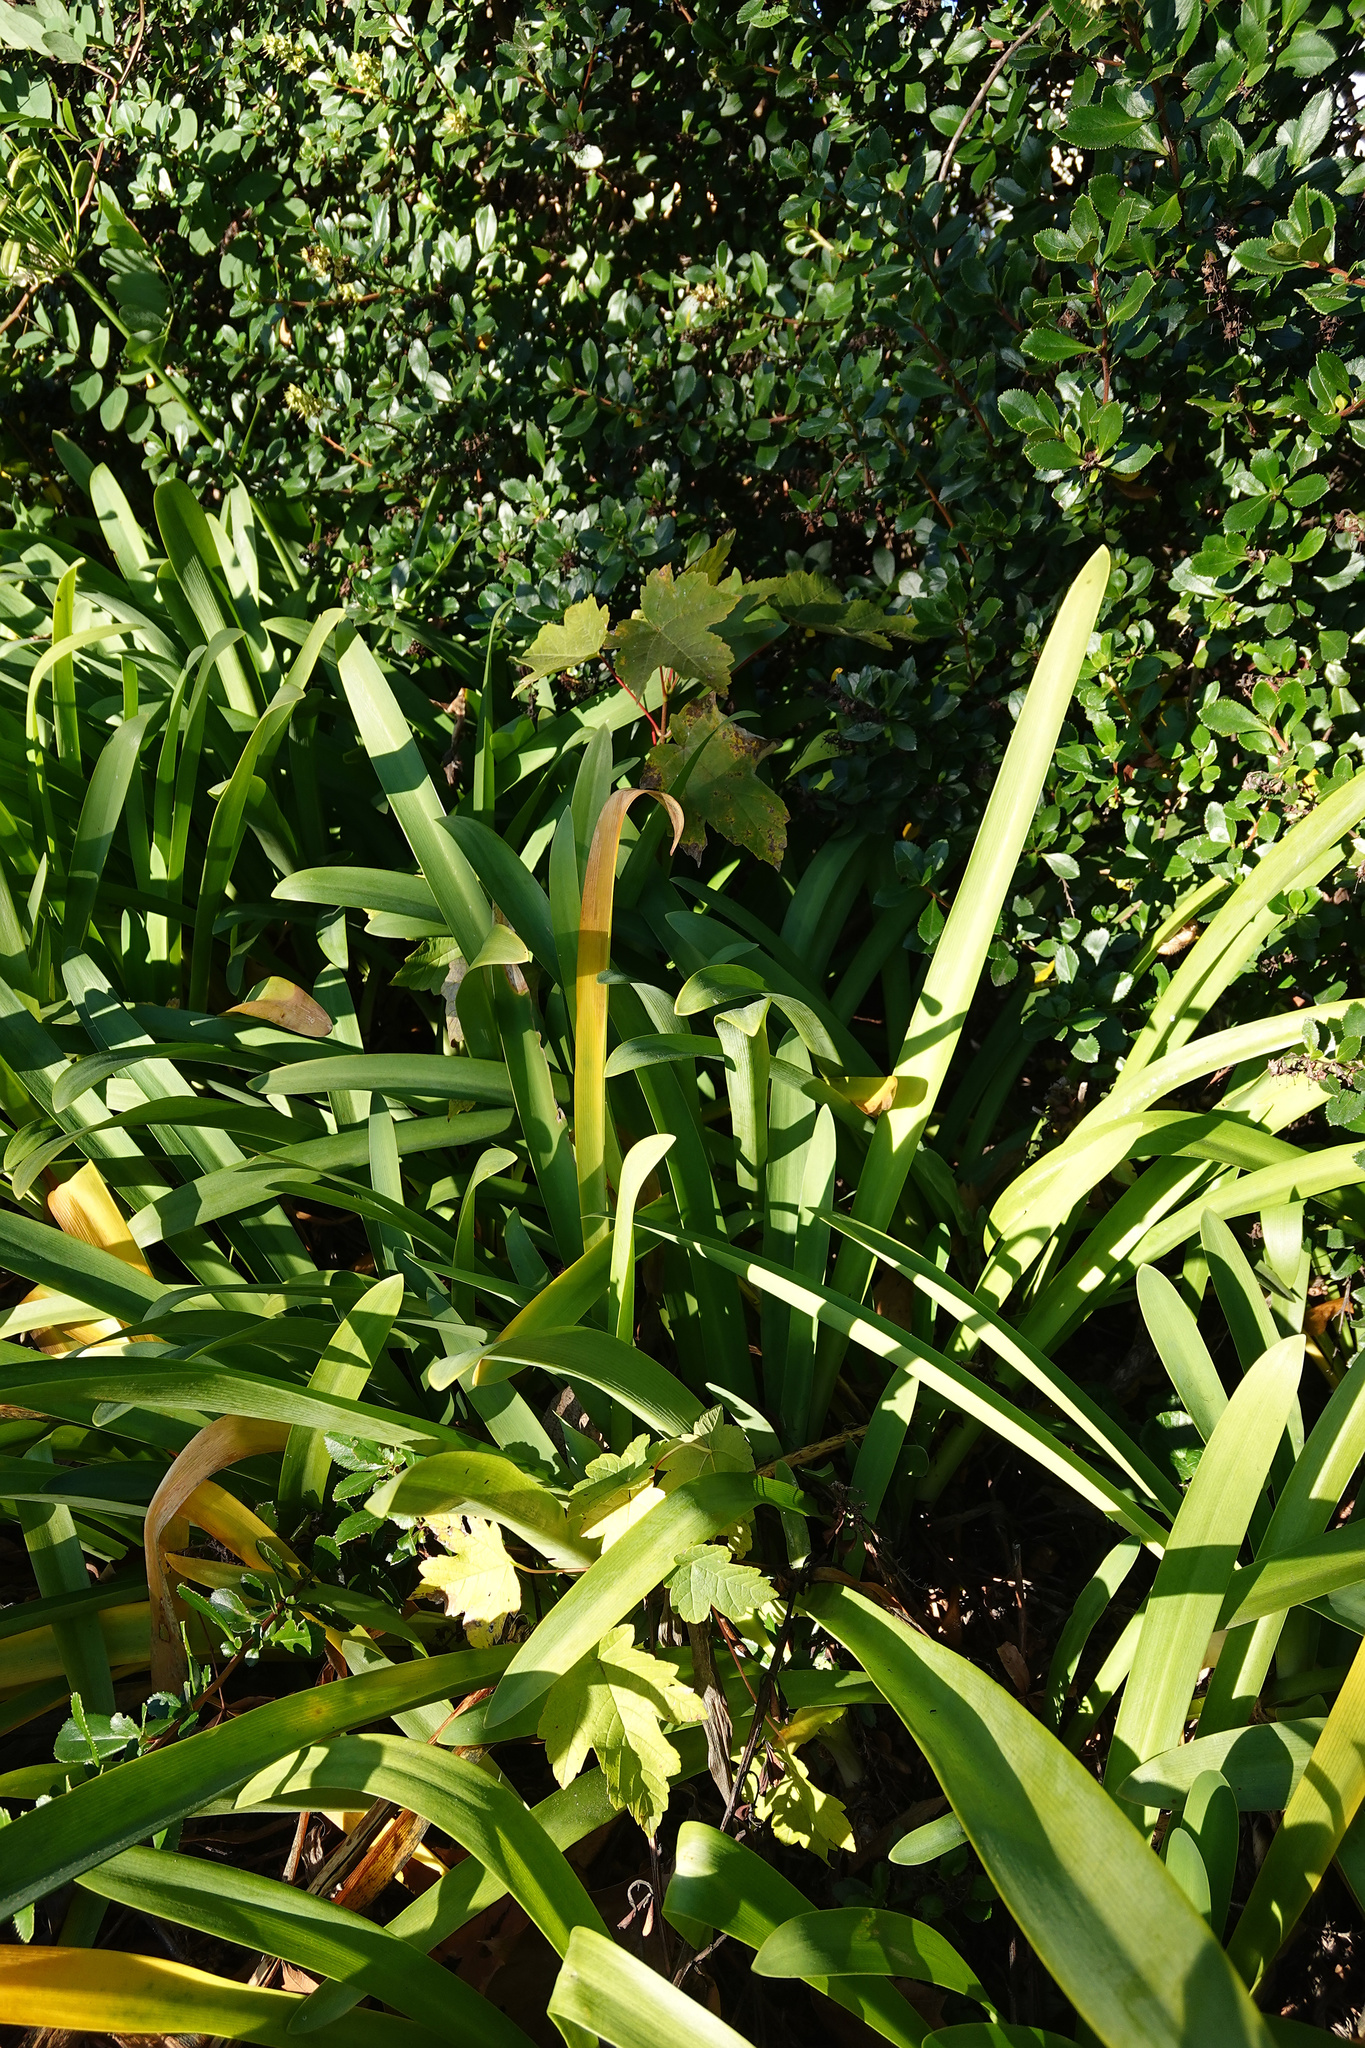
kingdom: Plantae
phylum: Tracheophyta
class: Magnoliopsida
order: Sapindales
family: Sapindaceae
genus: Acer
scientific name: Acer pseudoplatanus
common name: Sycamore
